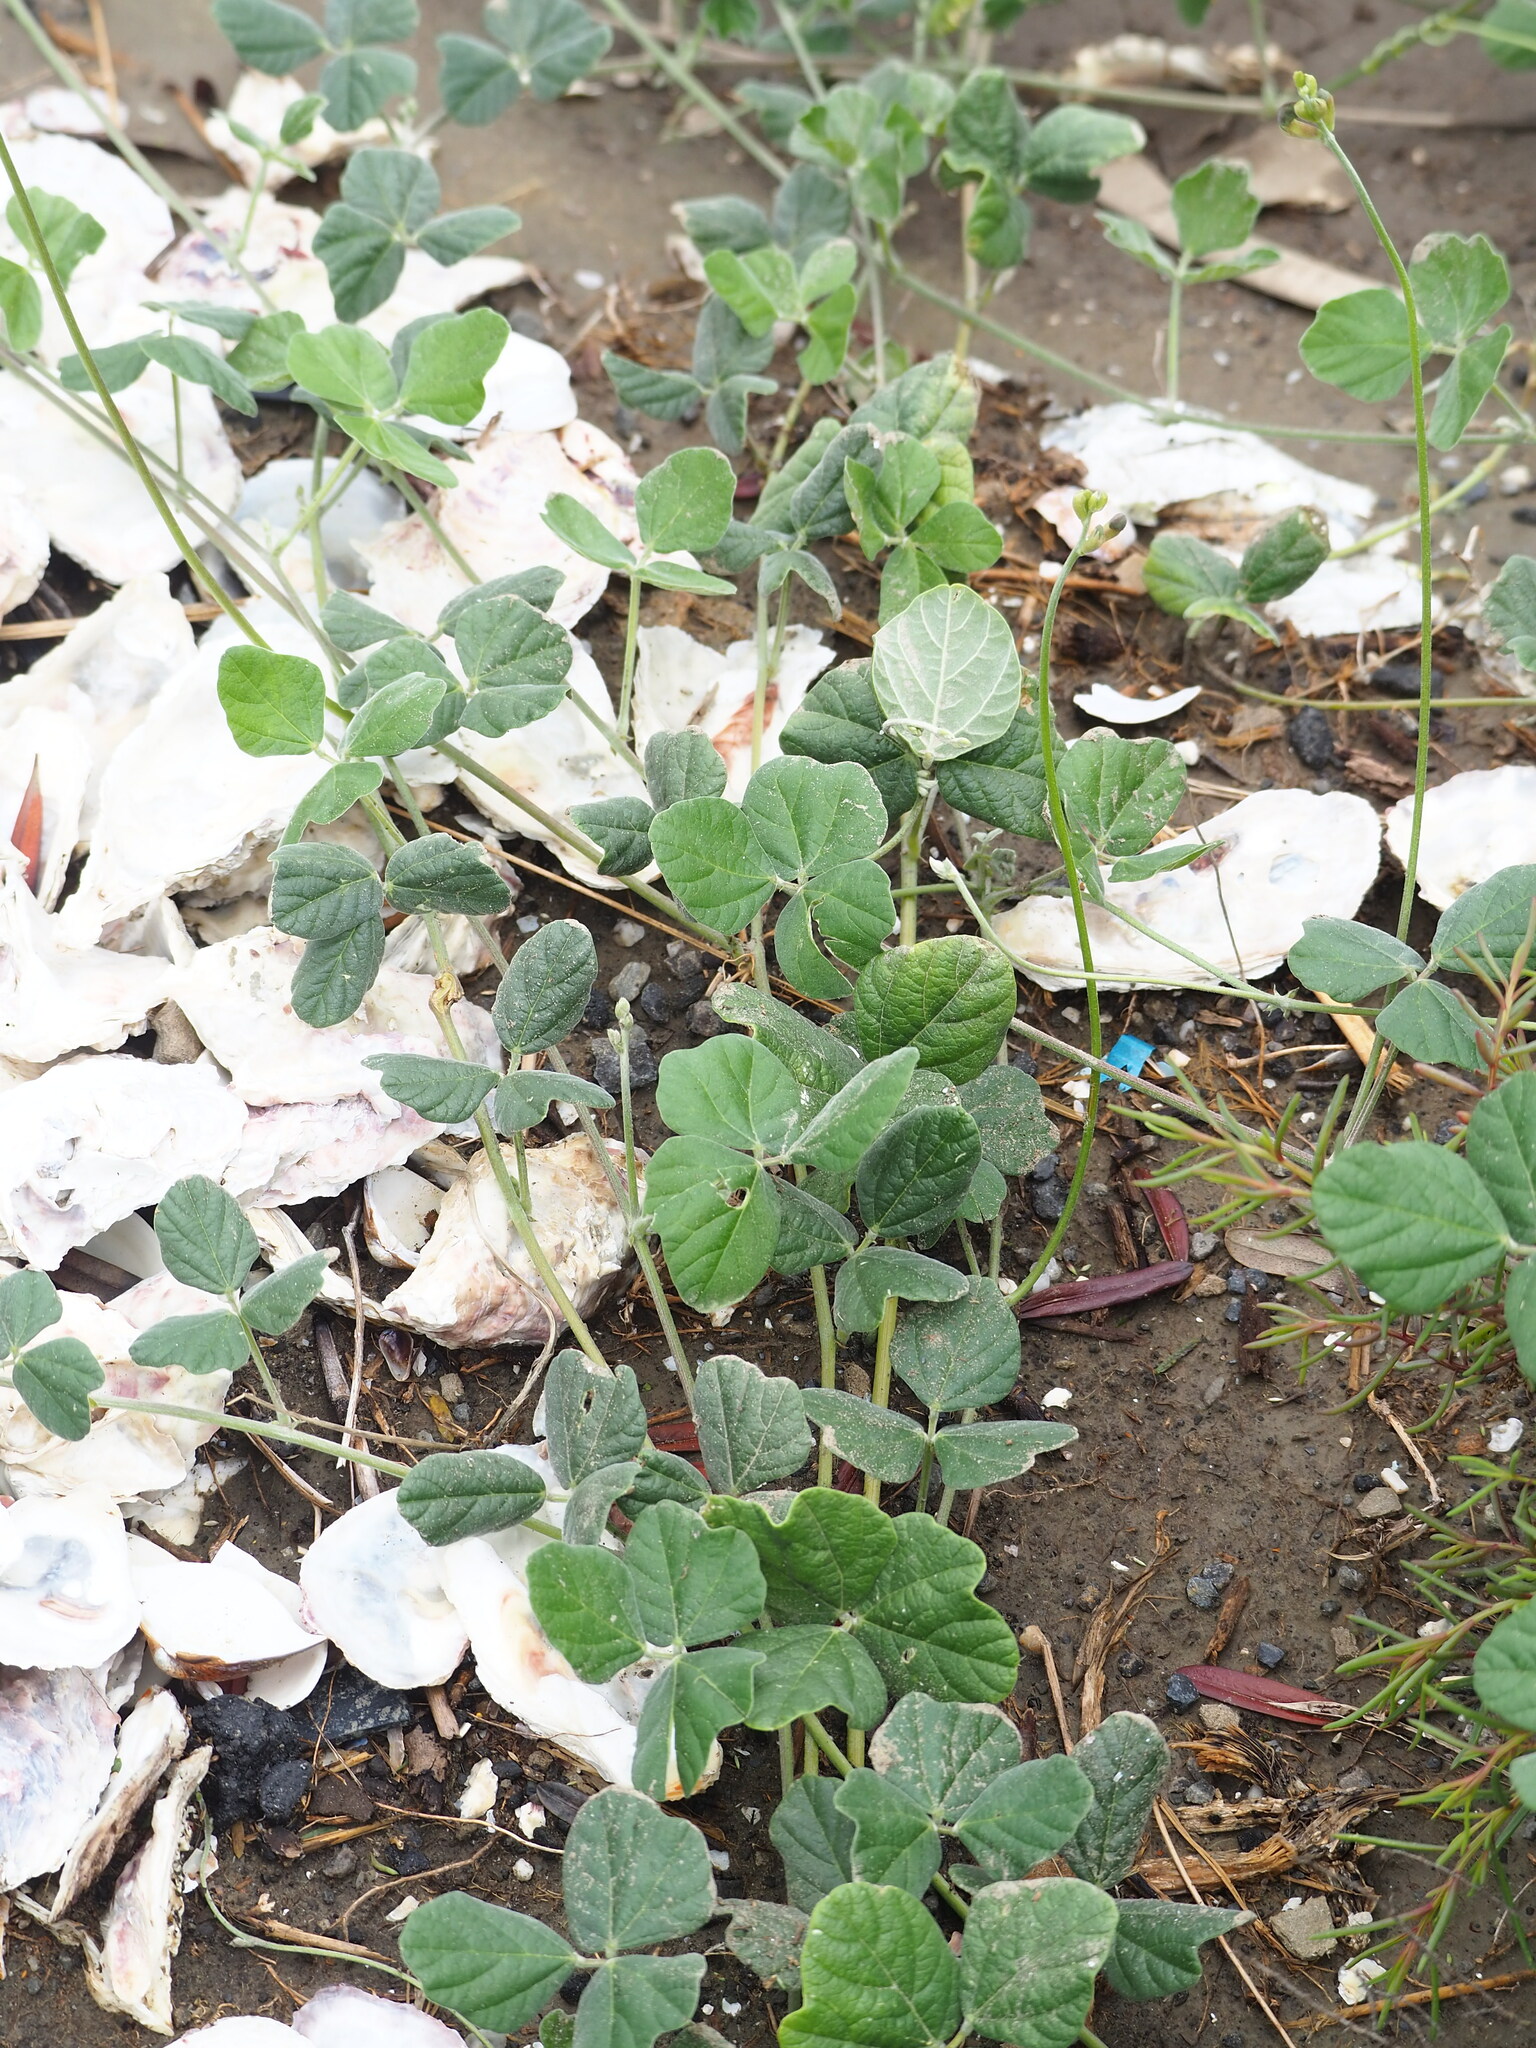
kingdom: Plantae
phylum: Tracheophyta
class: Magnoliopsida
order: Fabales
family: Fabaceae
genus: Macroptilium
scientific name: Macroptilium atropurpureum
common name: Purple bushbean
